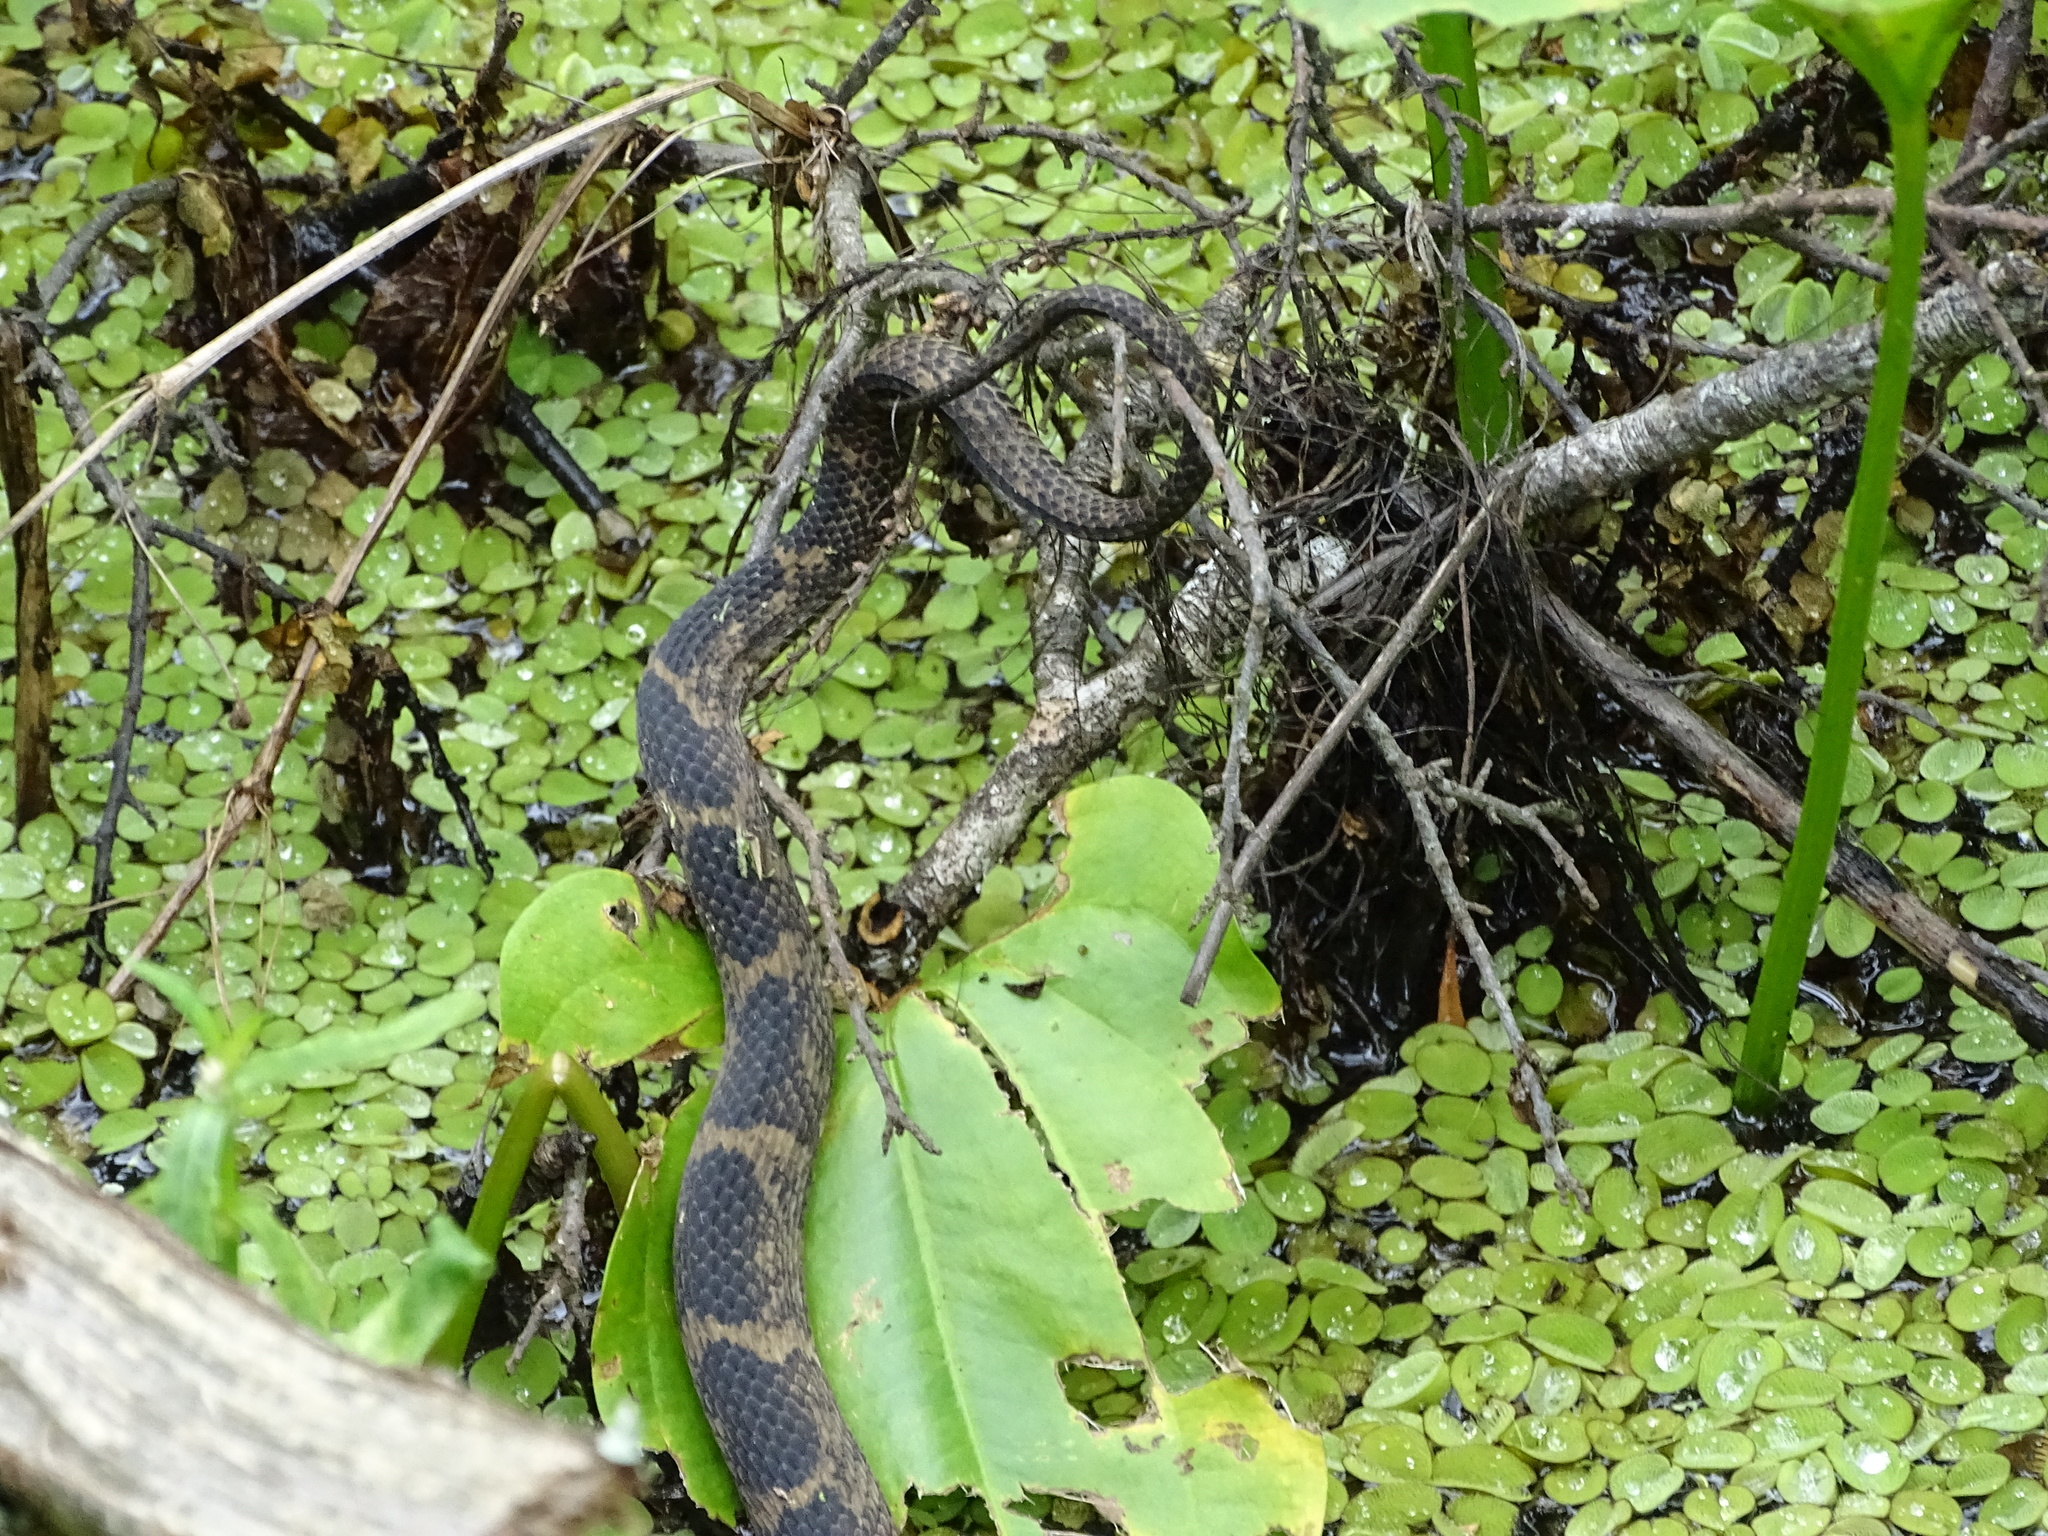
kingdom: Animalia
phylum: Chordata
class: Squamata
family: Colubridae
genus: Nerodia
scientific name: Nerodia fasciata
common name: Southern water snake
